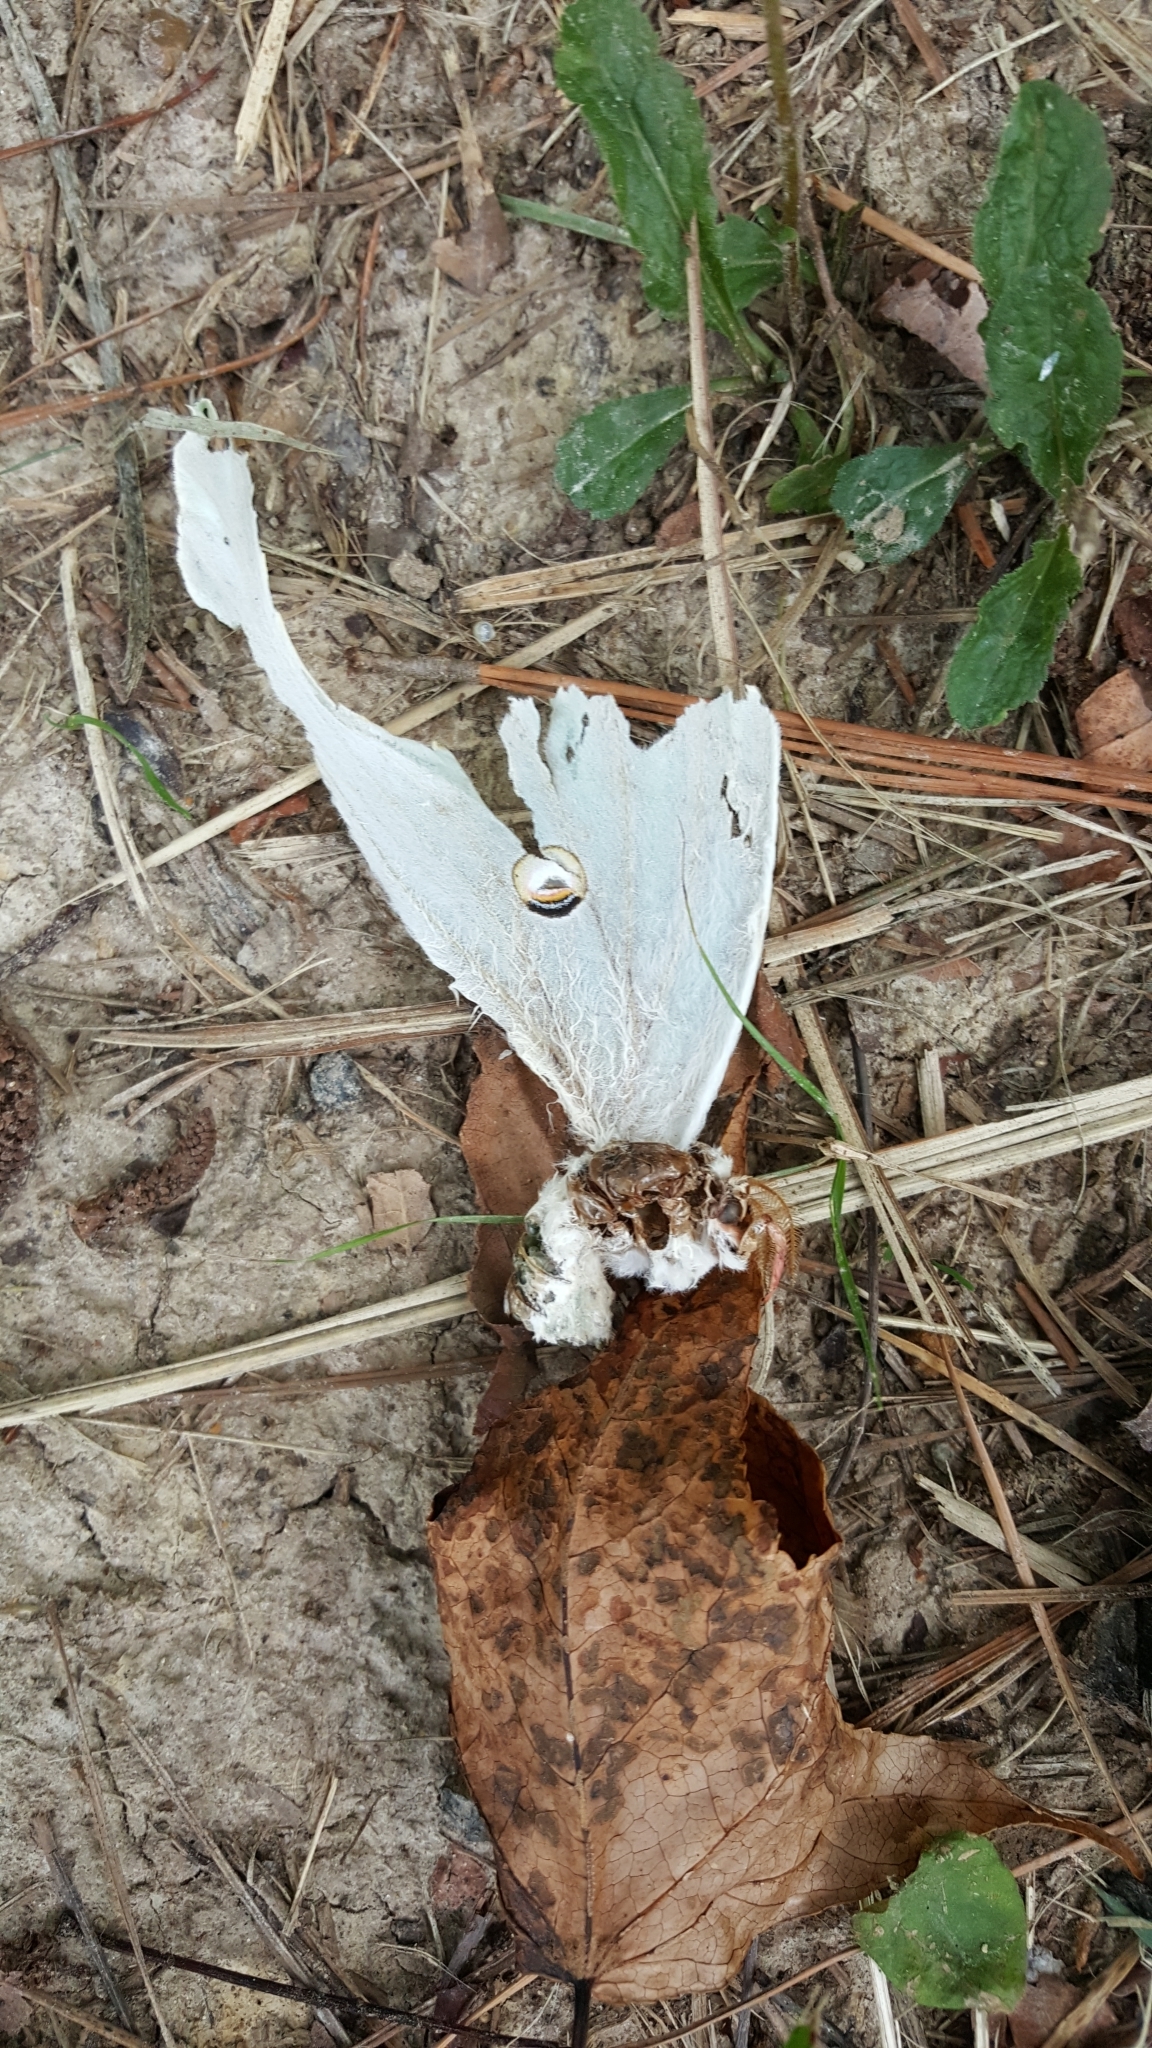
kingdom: Animalia
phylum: Arthropoda
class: Insecta
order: Lepidoptera
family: Saturniidae
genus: Actias
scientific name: Actias luna
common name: Luna moth
